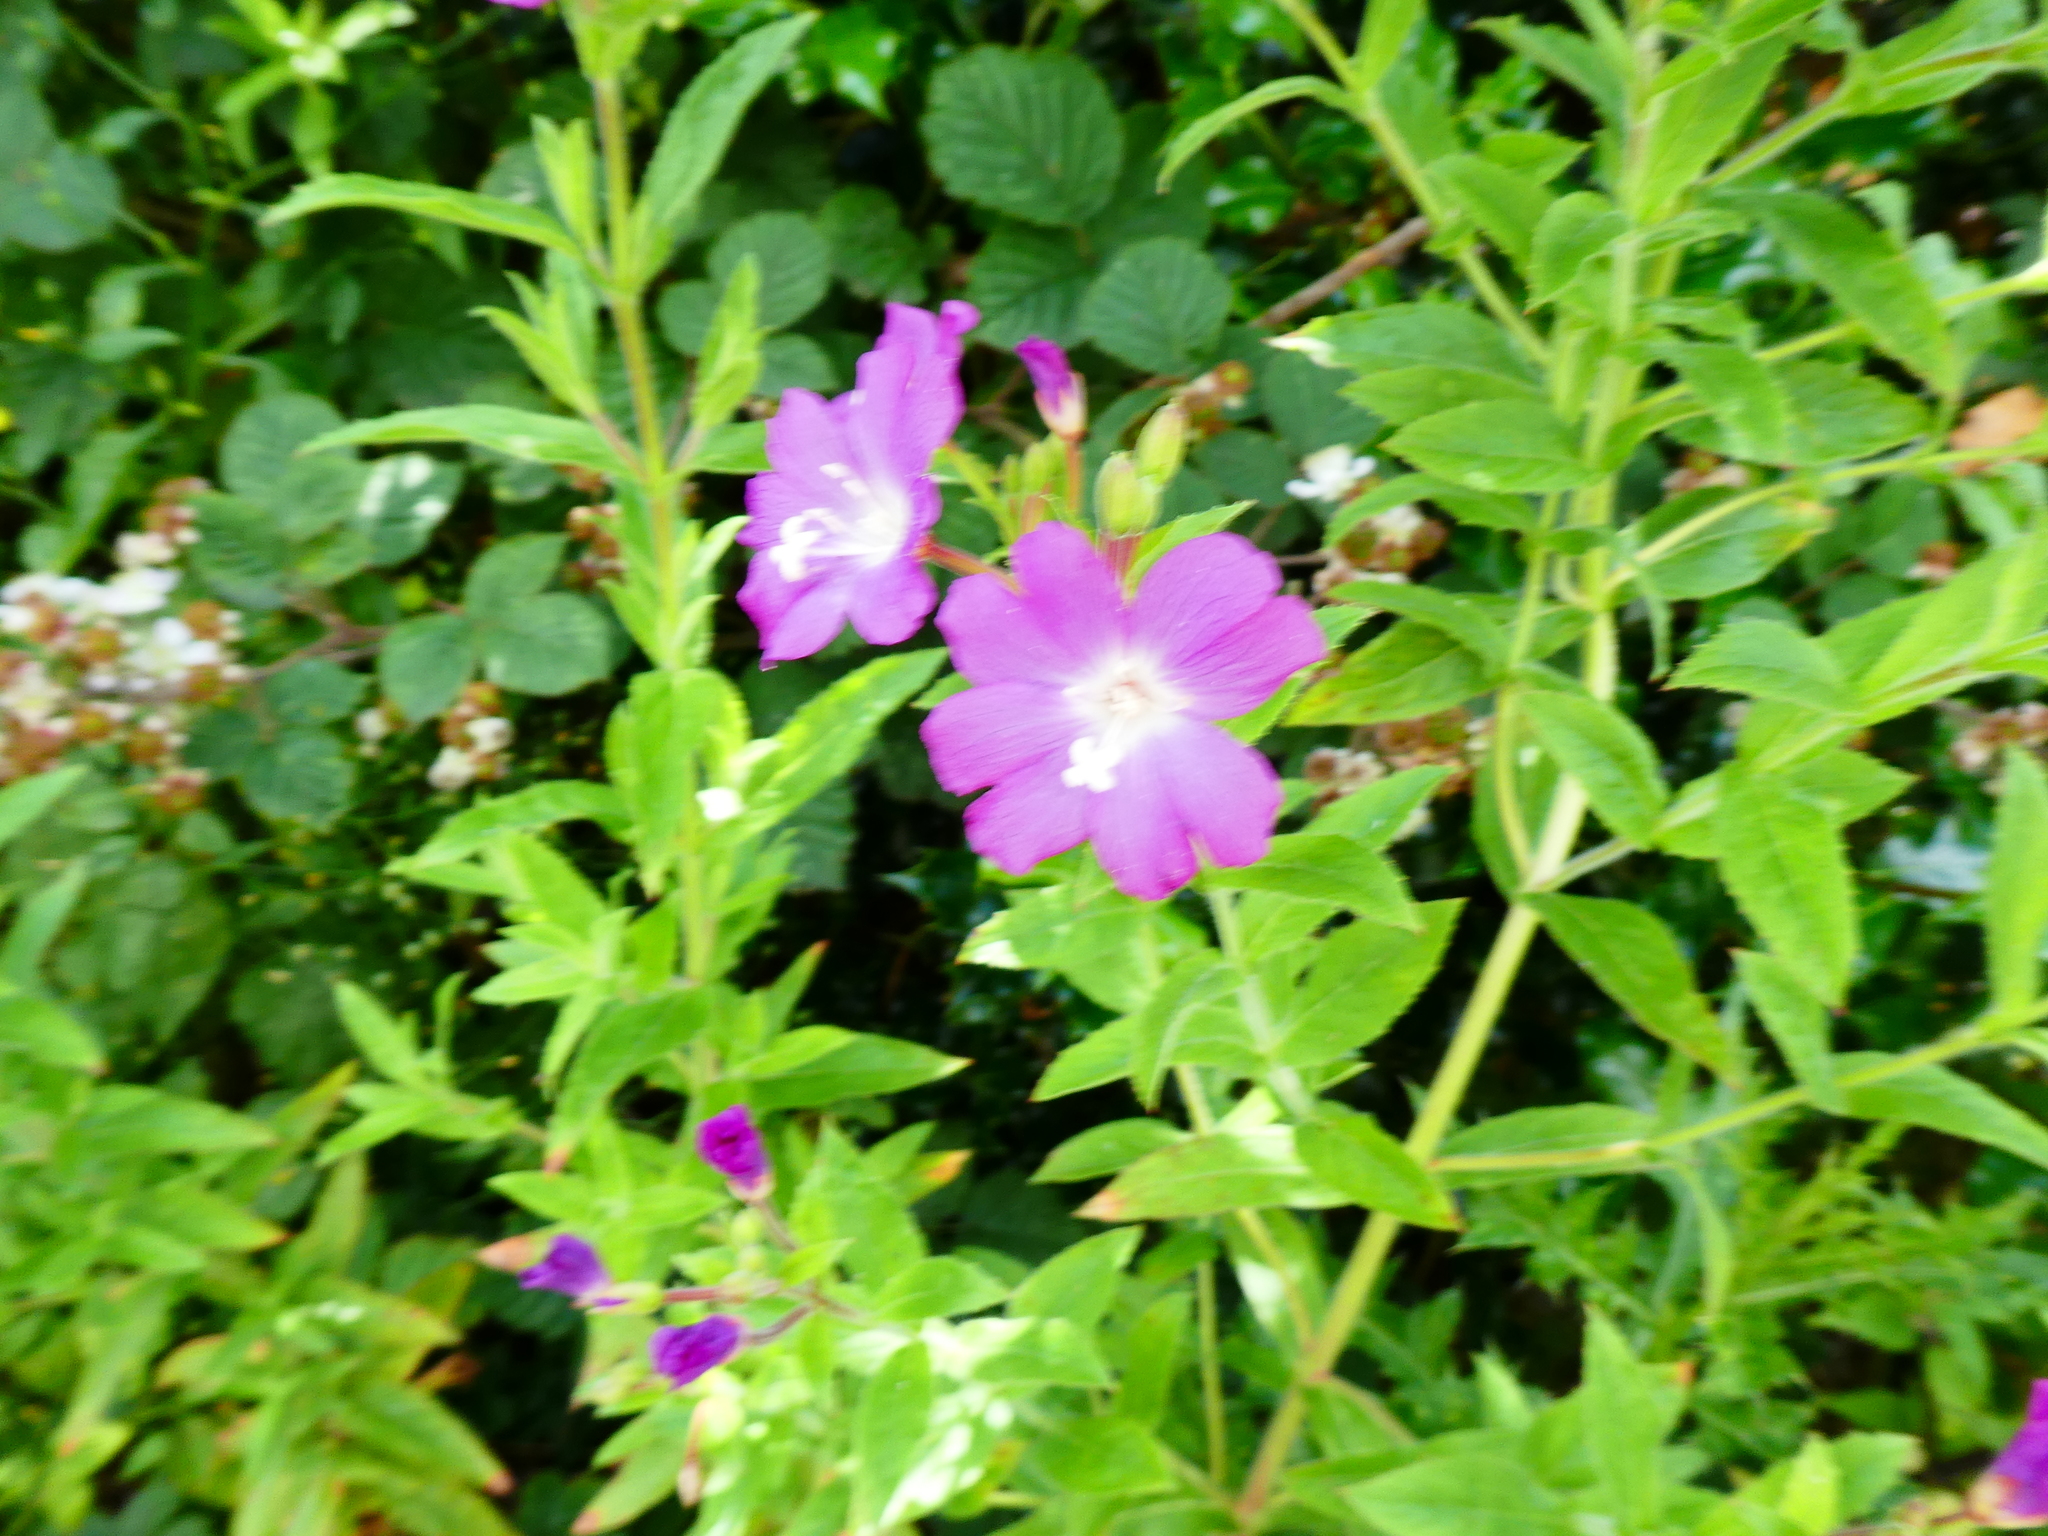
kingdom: Plantae
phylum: Tracheophyta
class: Magnoliopsida
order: Myrtales
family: Onagraceae
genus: Epilobium
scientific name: Epilobium hirsutum
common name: Great willowherb
